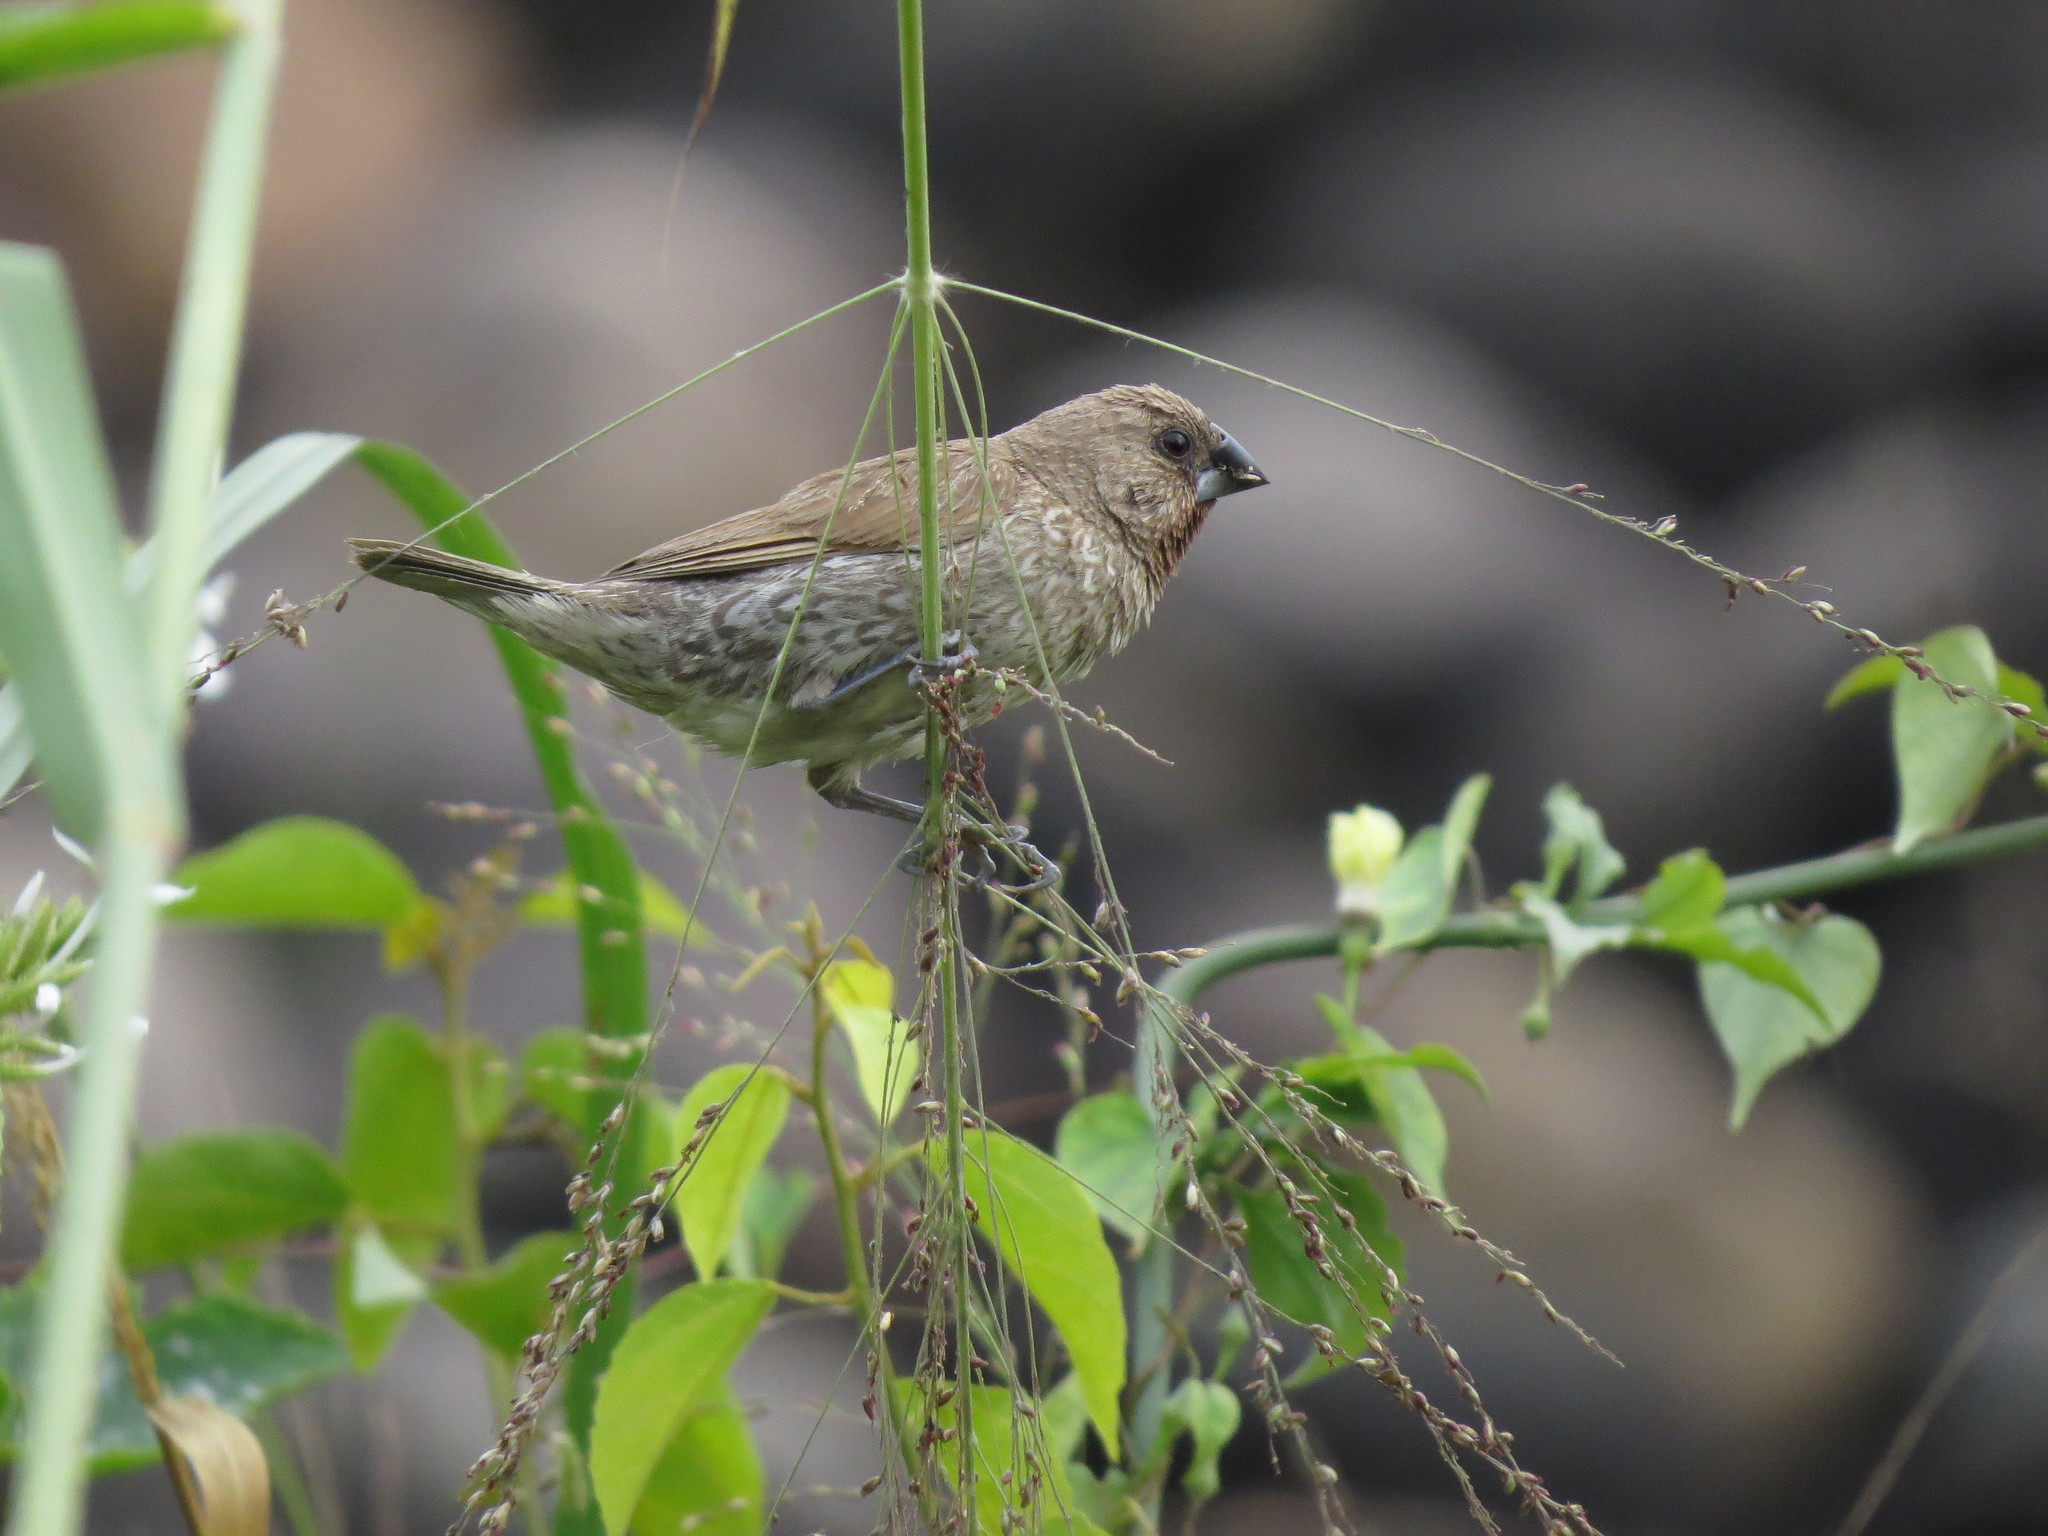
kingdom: Animalia
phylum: Chordata
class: Aves
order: Passeriformes
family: Estrildidae
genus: Lonchura
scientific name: Lonchura punctulata
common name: Scaly-breasted munia
